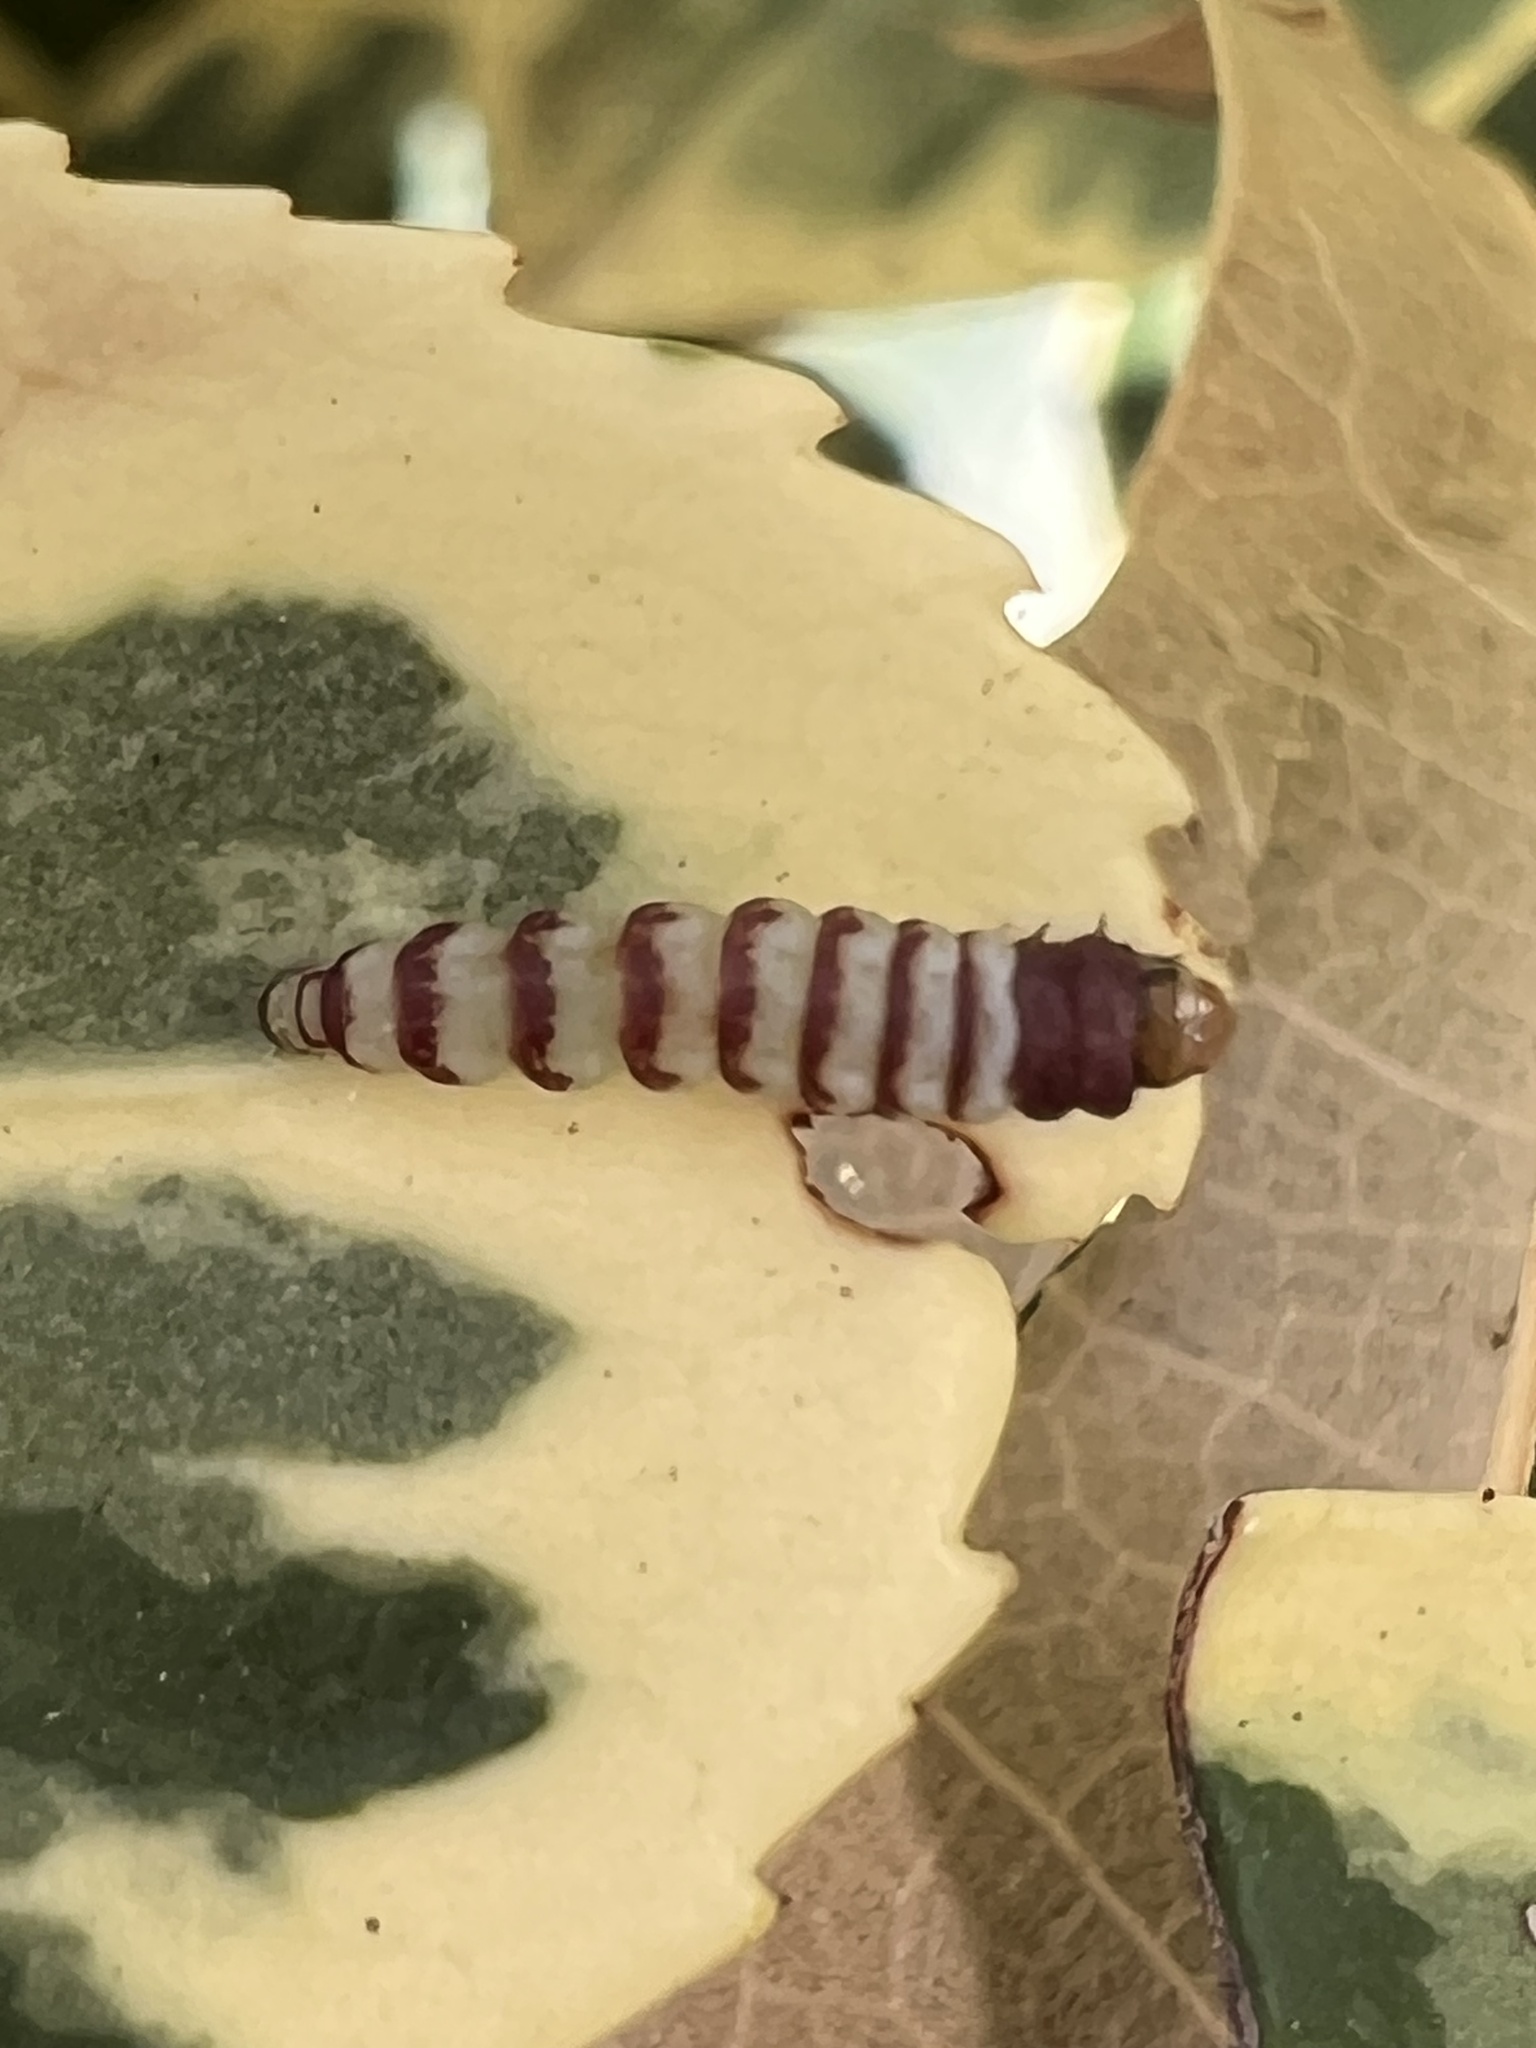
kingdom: Animalia
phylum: Arthropoda
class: Insecta
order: Lepidoptera
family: Gelechiidae
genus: Arogalea
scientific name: Arogalea cristifasciella
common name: White stripe-backed moth
